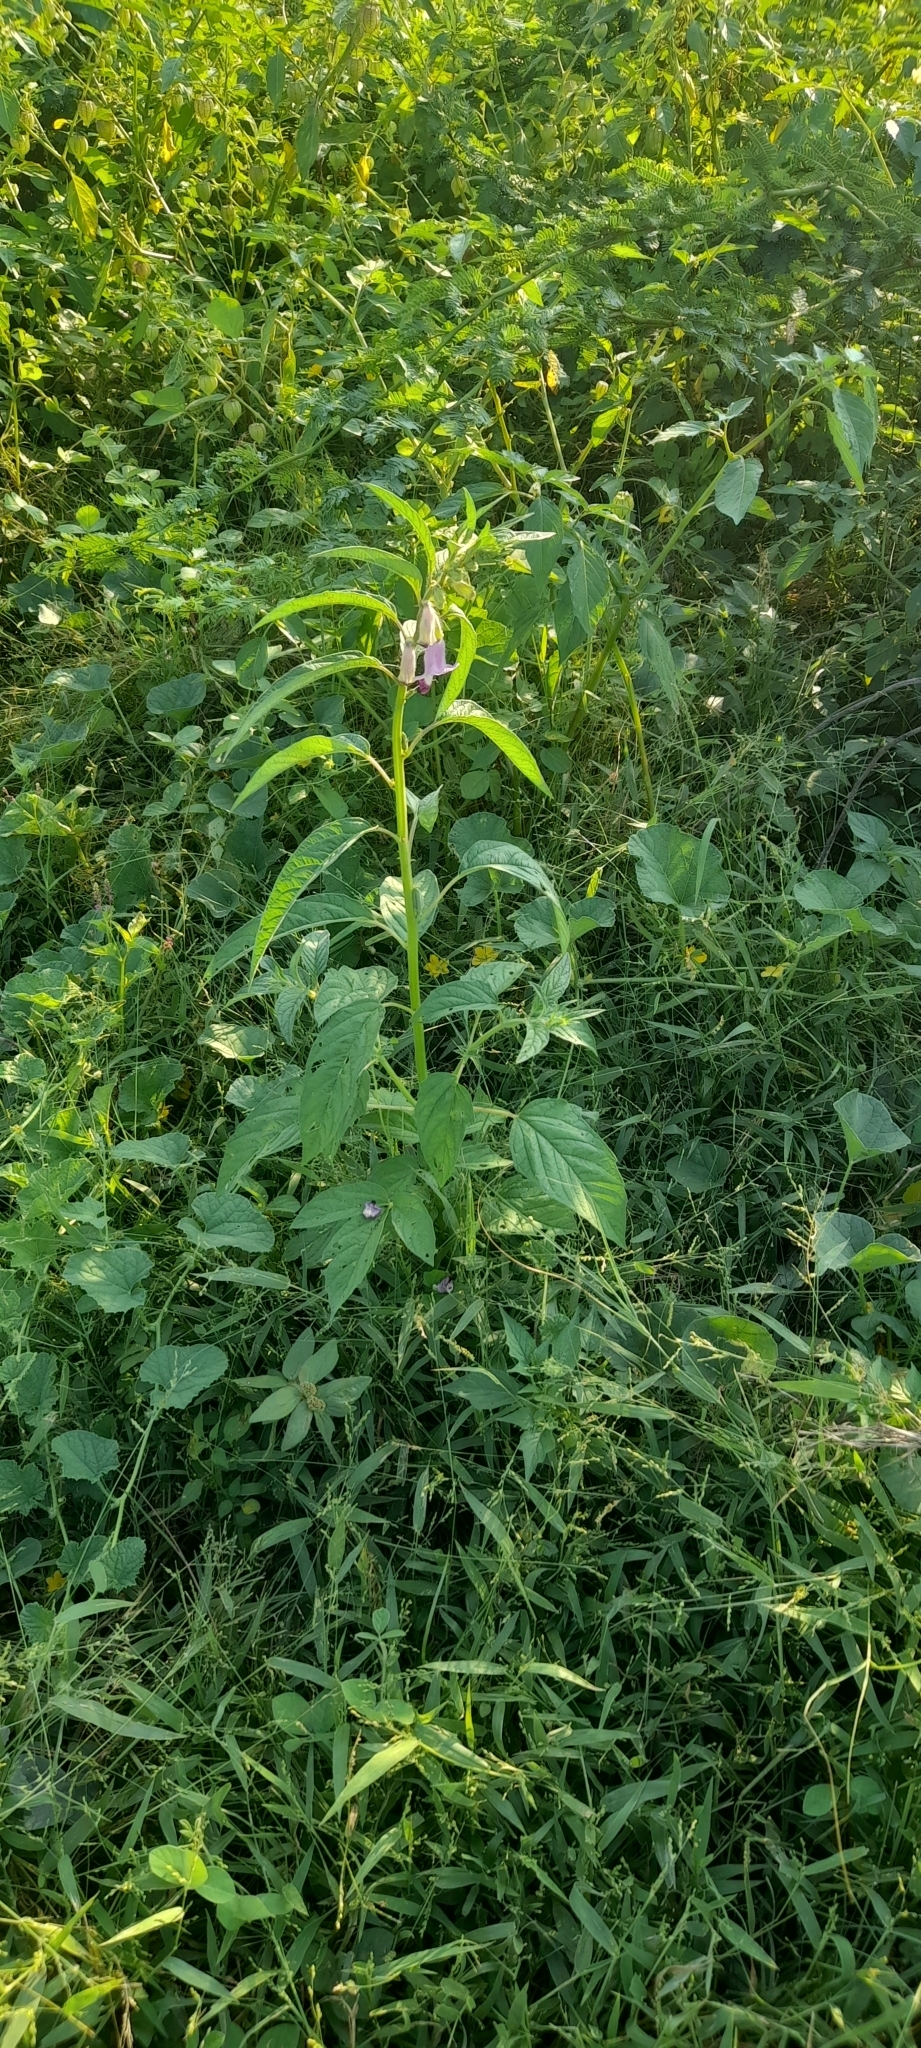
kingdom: Plantae
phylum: Tracheophyta
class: Magnoliopsida
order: Lamiales
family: Pedaliaceae
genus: Sesamum
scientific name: Sesamum indicum
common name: Sesame
